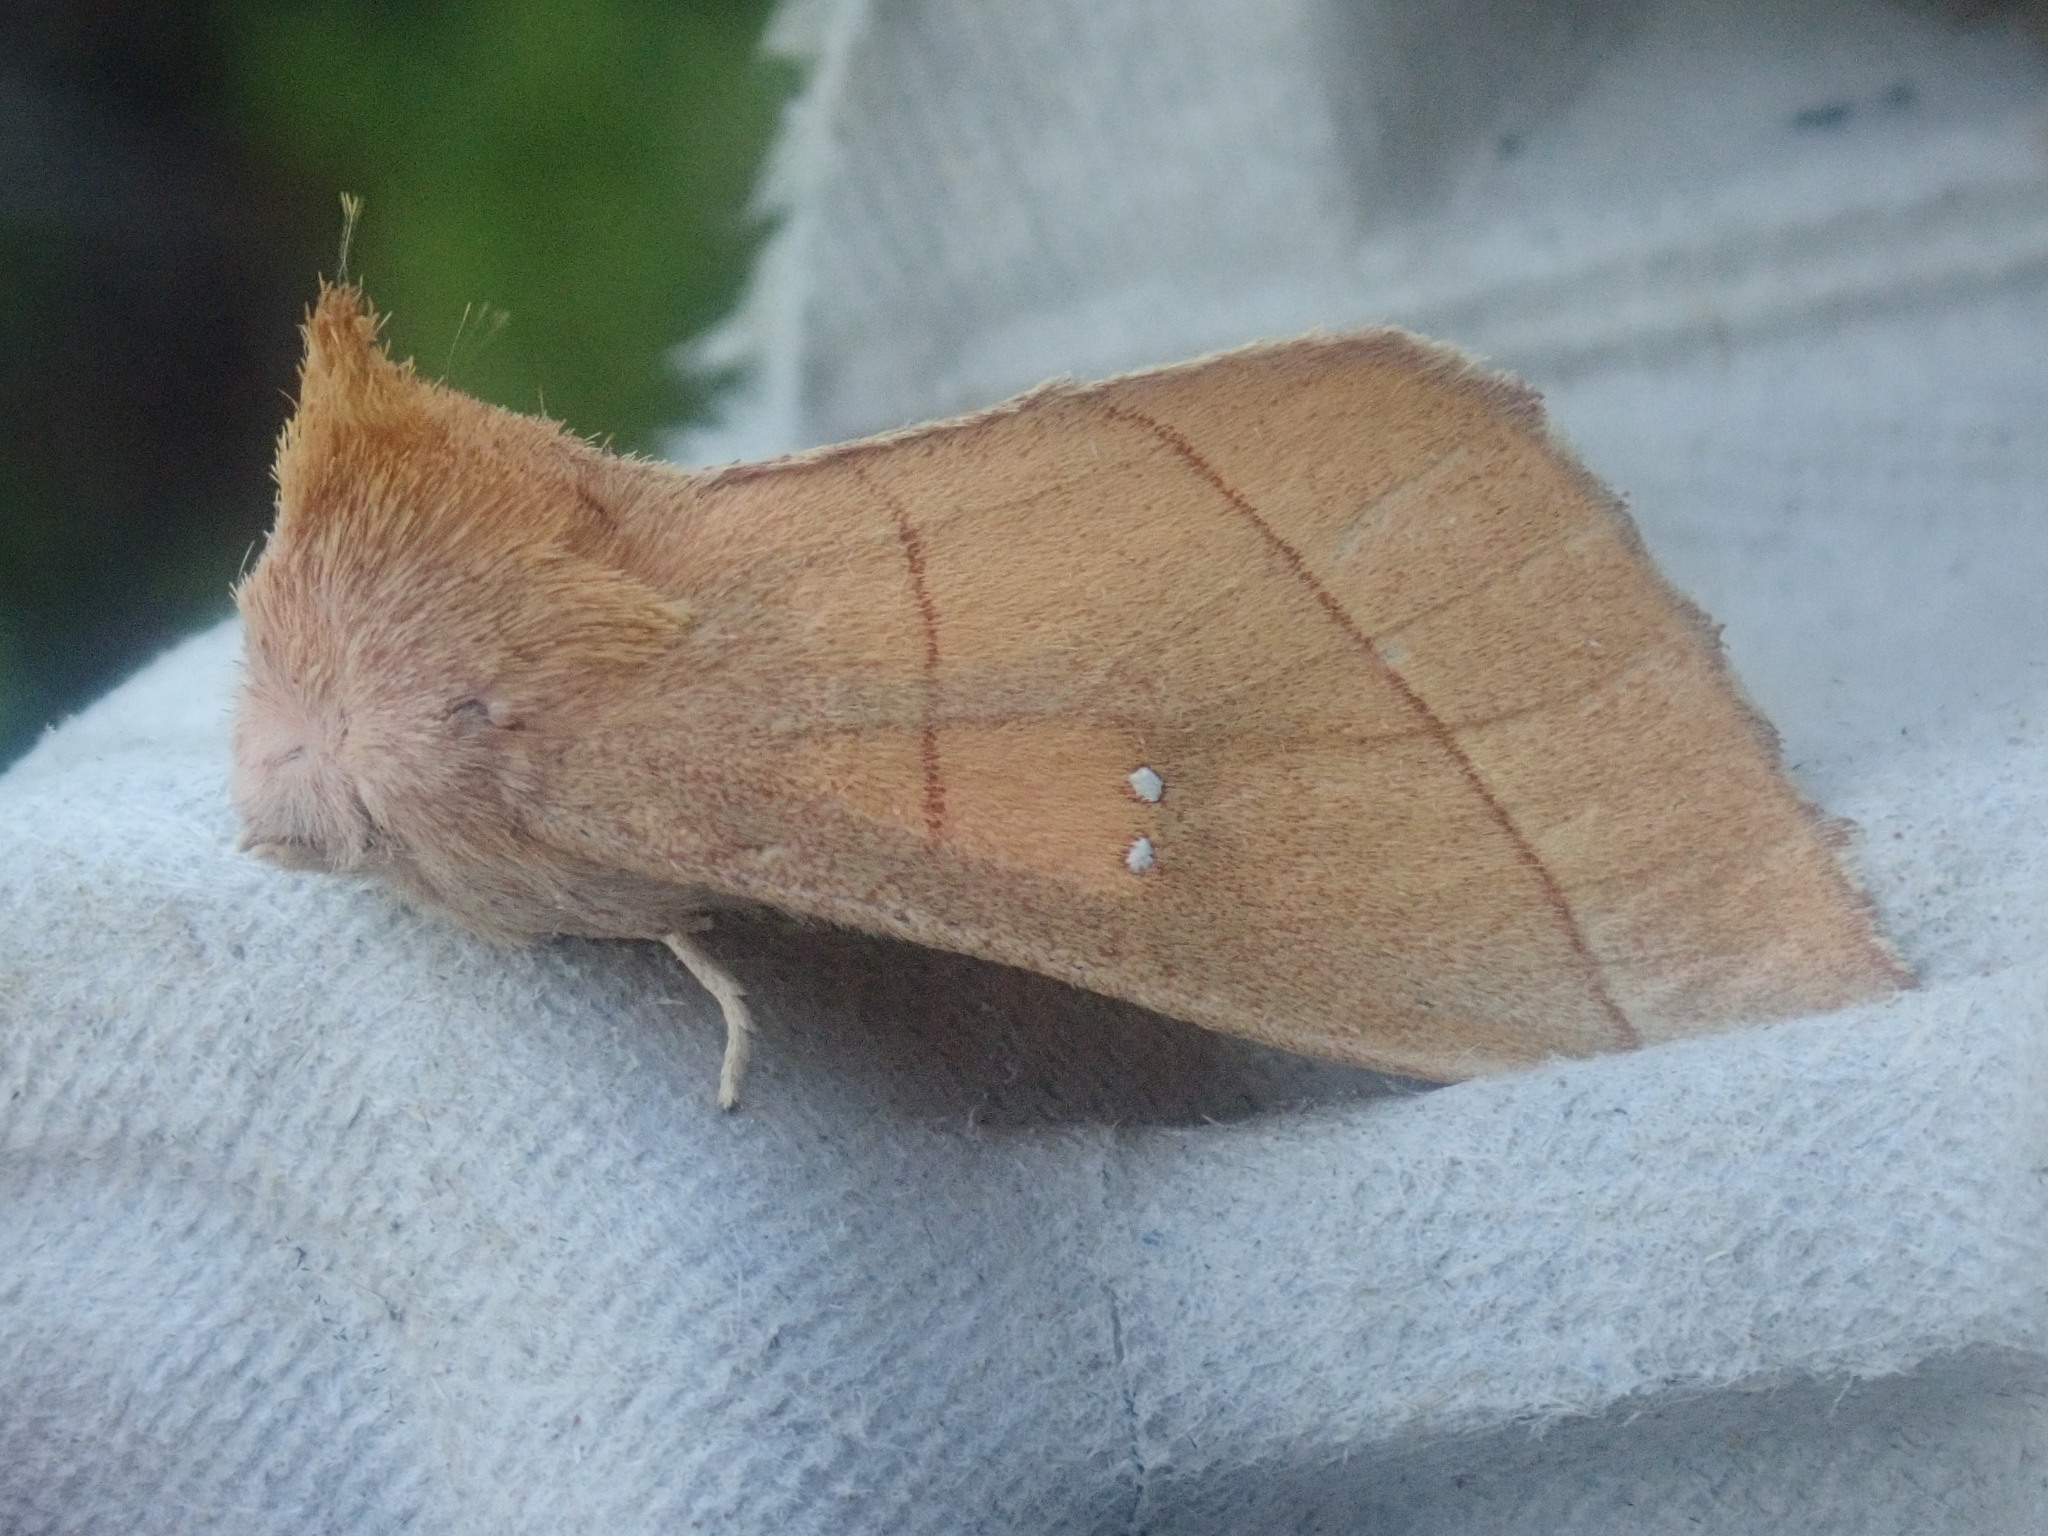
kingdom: Animalia
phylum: Arthropoda
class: Insecta
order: Lepidoptera
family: Notodontidae
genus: Nadata
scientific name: Nadata gibbosa
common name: White-dotted prominent
